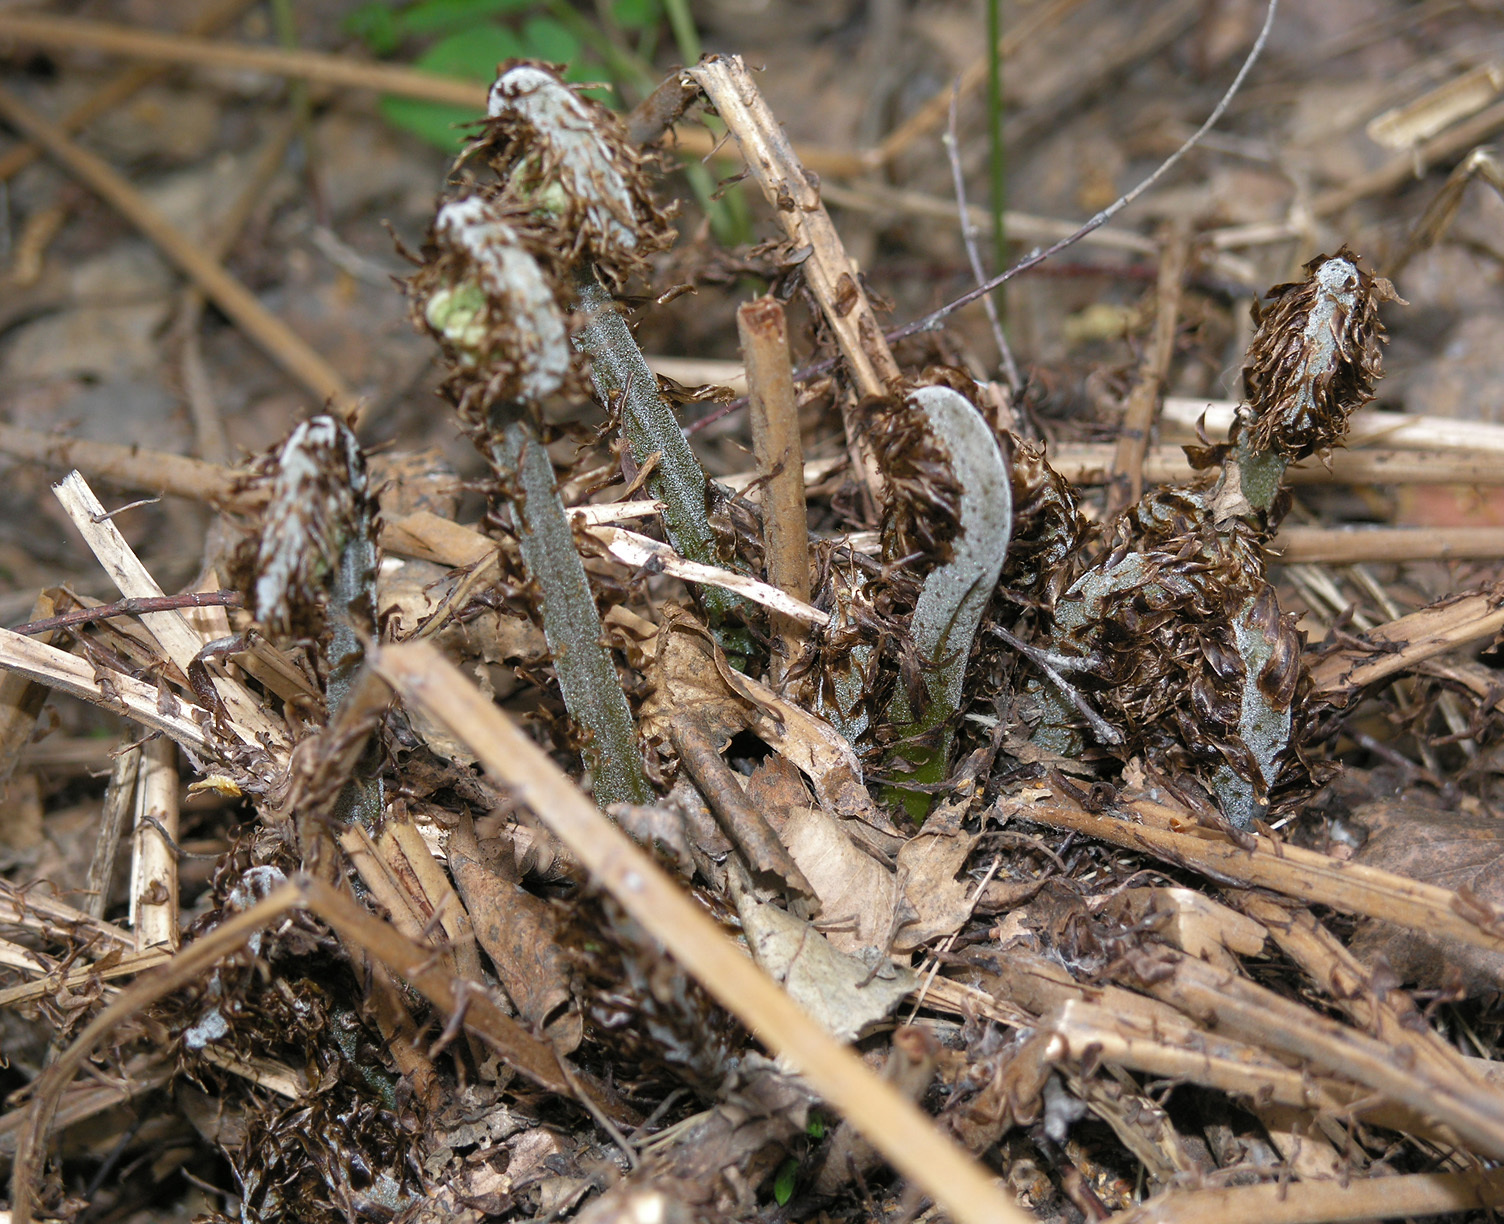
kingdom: Plantae
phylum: Tracheophyta
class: Polypodiopsida
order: Polypodiales
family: Athyriaceae
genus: Athyrium
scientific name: Athyrium filix-femina
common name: Lady fern
